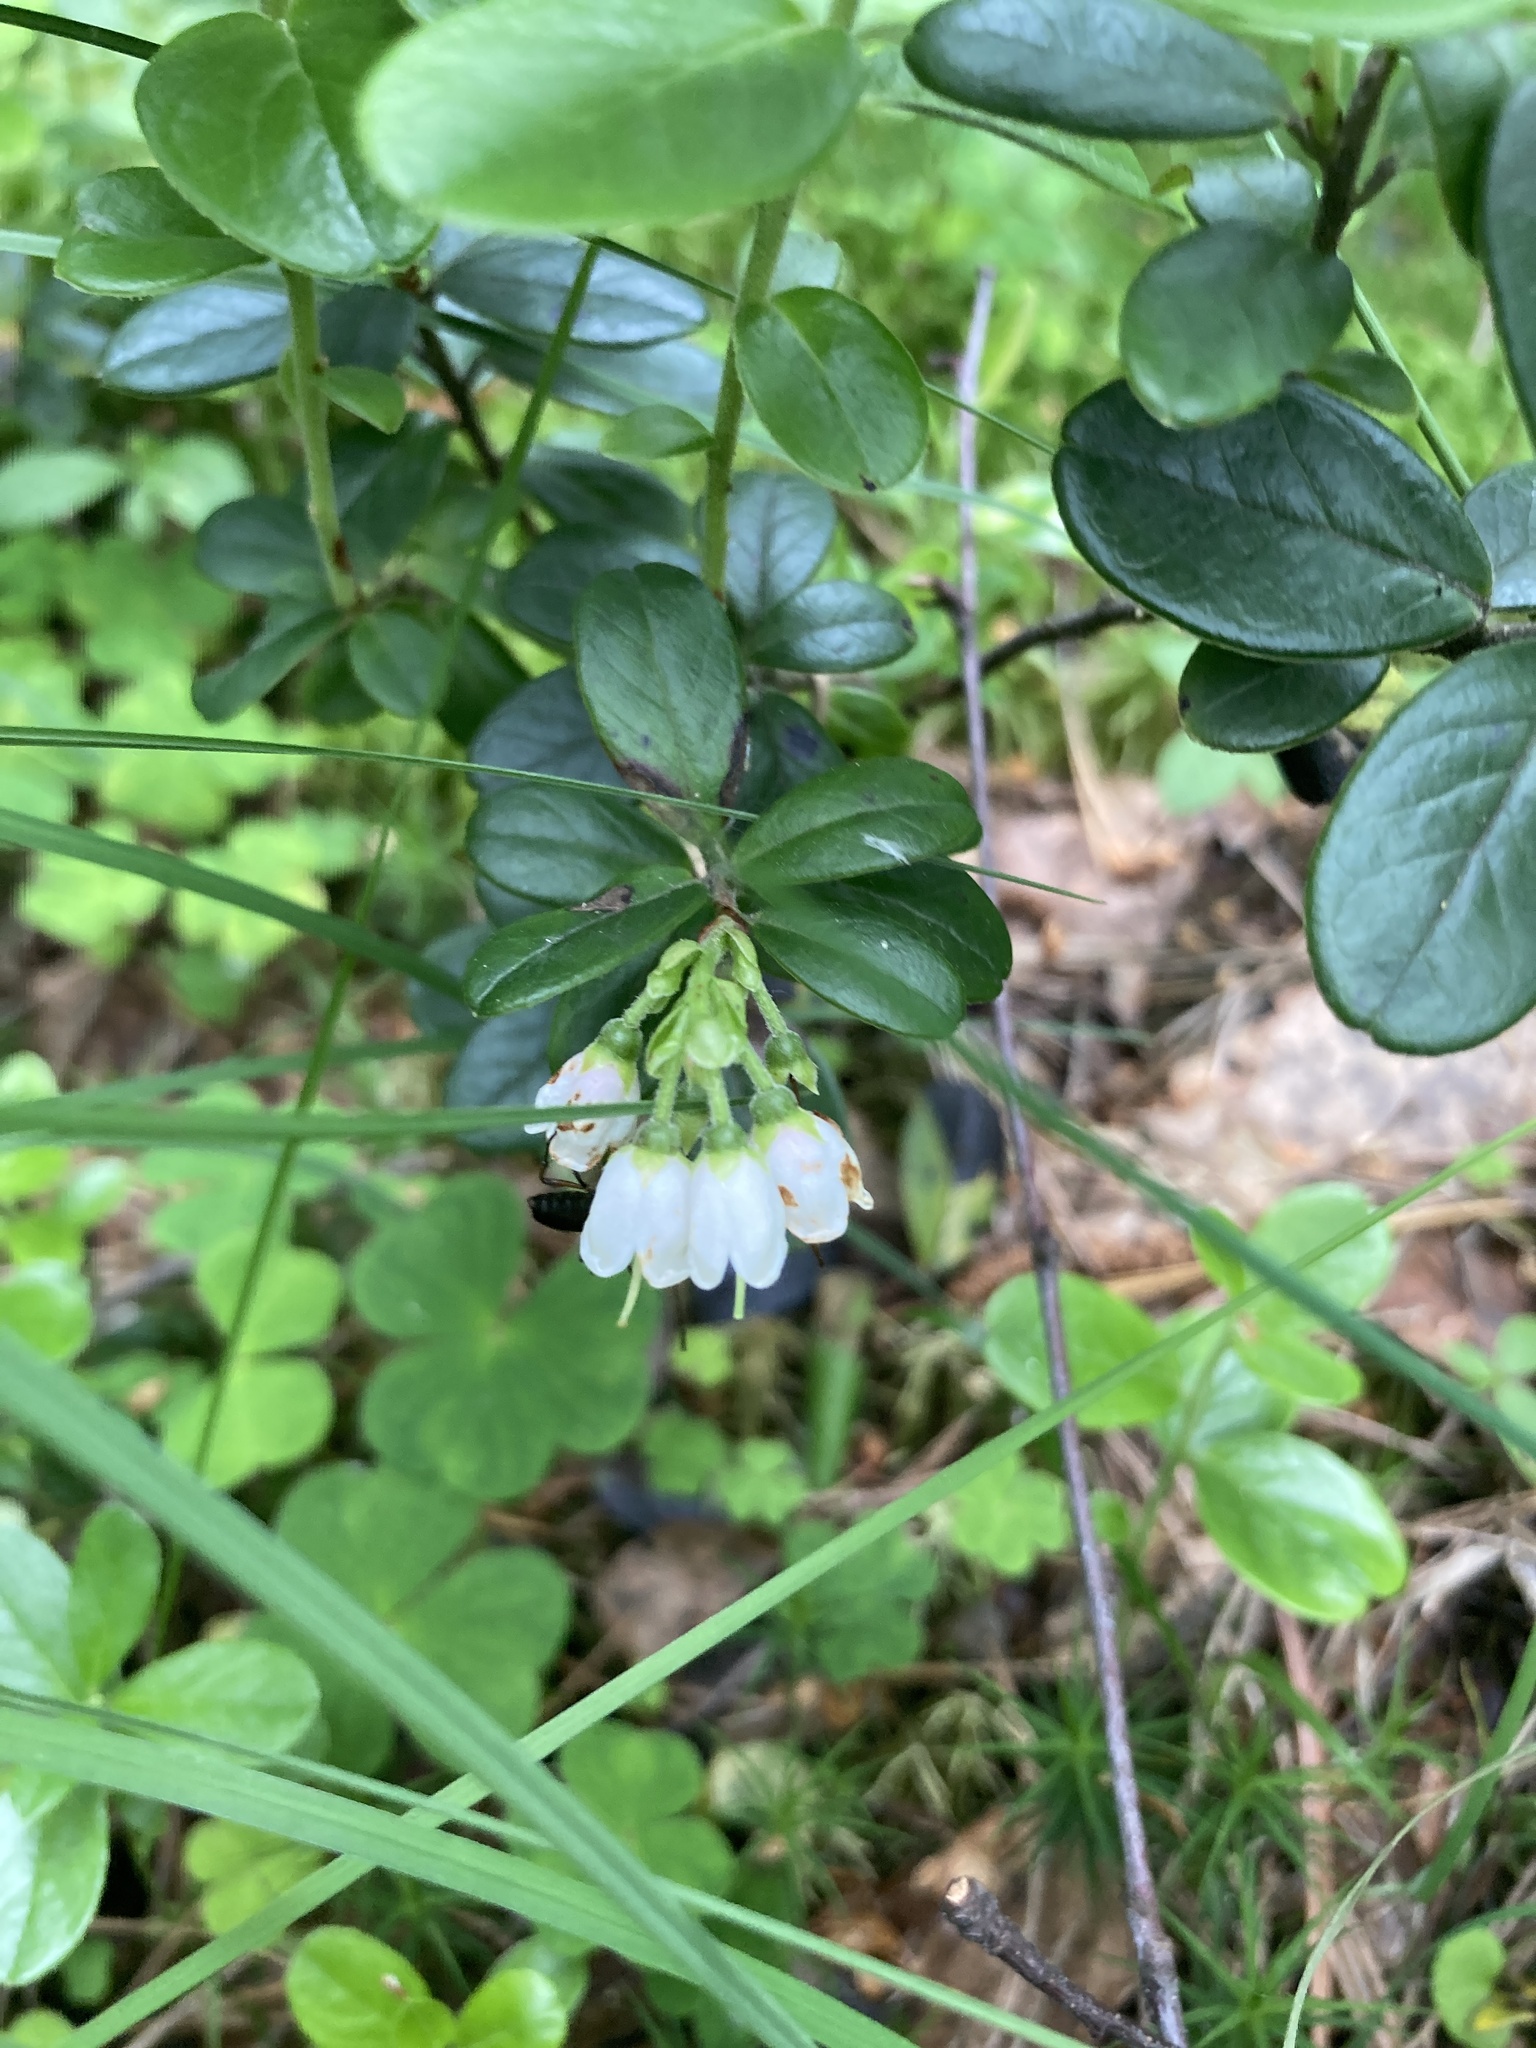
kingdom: Plantae
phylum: Tracheophyta
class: Magnoliopsida
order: Ericales
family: Ericaceae
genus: Vaccinium
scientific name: Vaccinium vitis-idaea
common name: Cowberry
